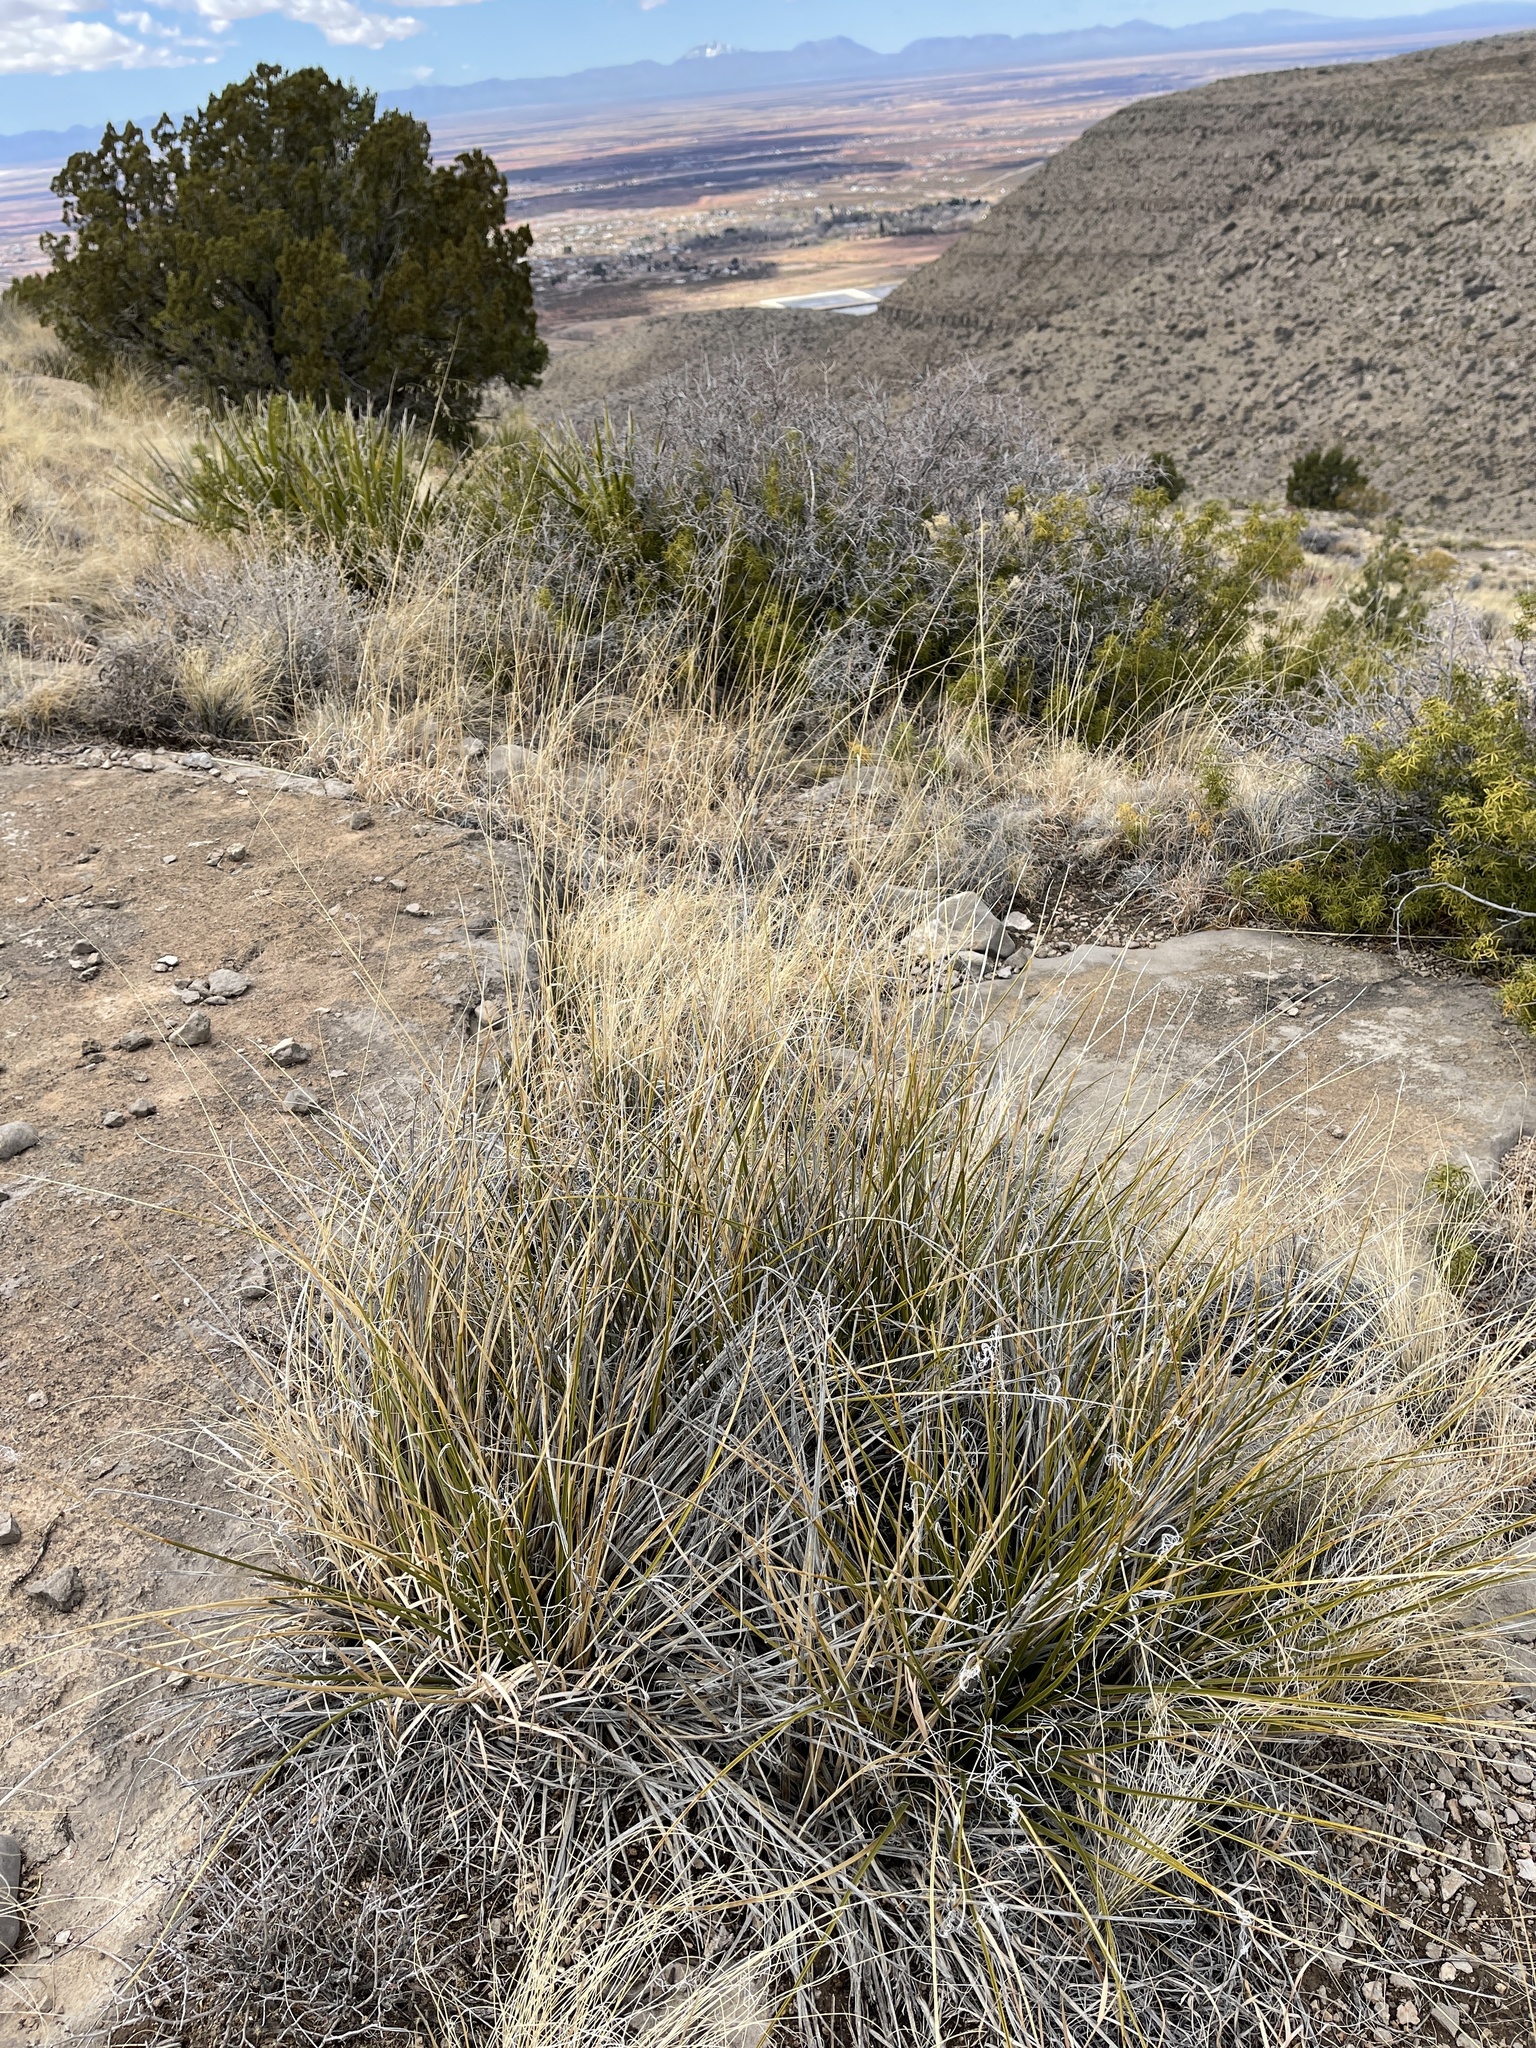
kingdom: Plantae
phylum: Tracheophyta
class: Liliopsida
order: Asparagales
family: Asparagaceae
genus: Nolina
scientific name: Nolina texana
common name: Texas sacahuiste
